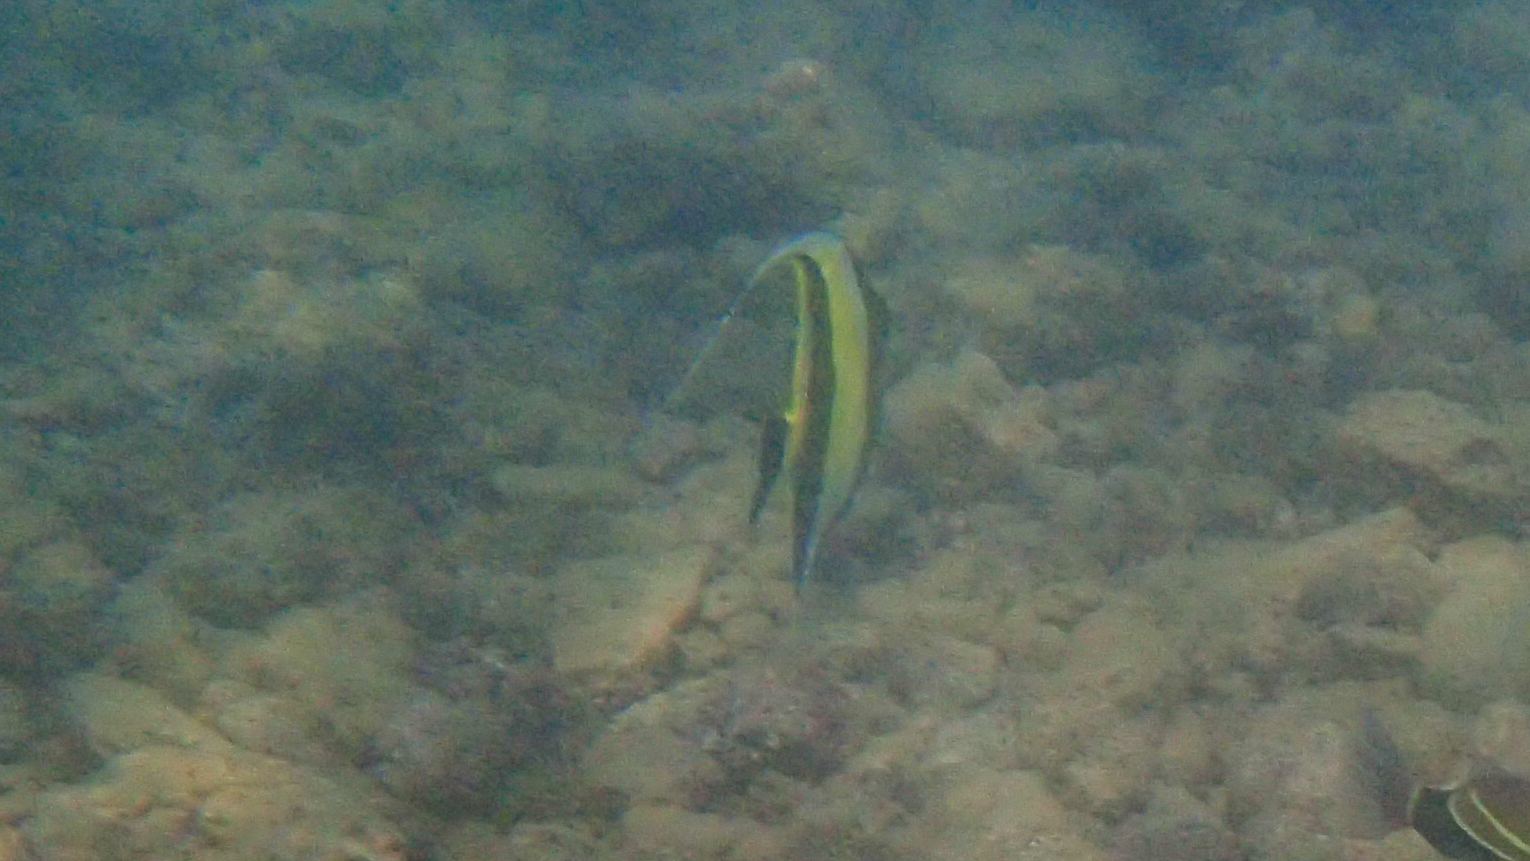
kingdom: Animalia
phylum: Chordata
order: Perciformes
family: Zanclidae
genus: Zanclus
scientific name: Zanclus cornutus
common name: Moorish idol
